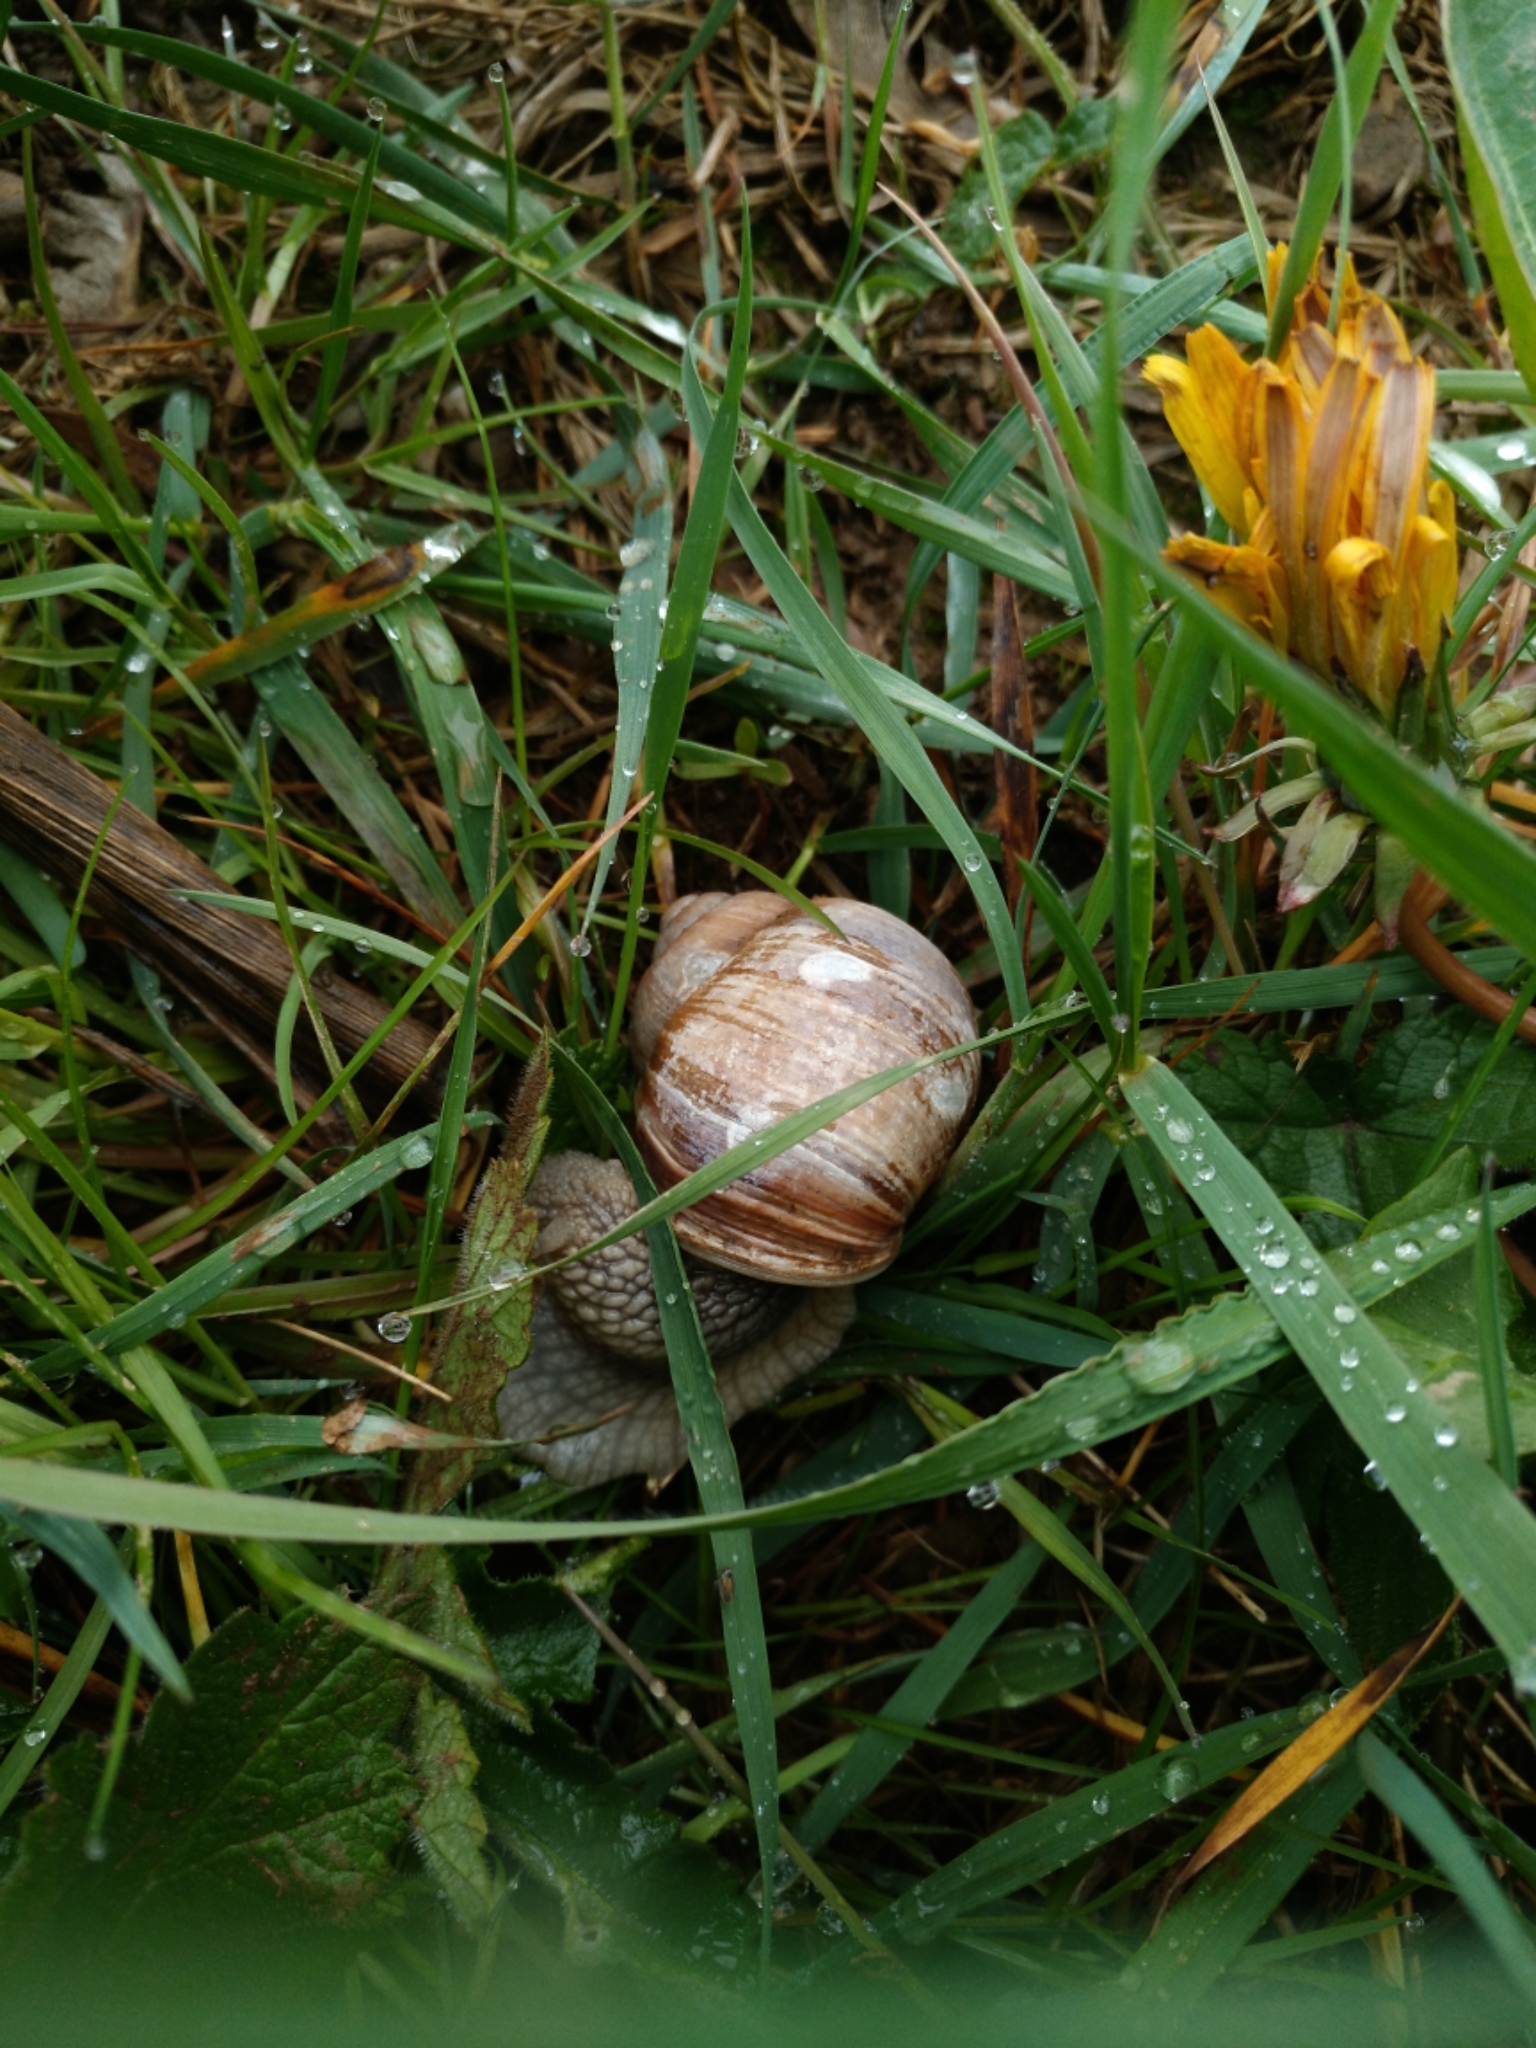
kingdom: Animalia
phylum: Mollusca
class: Gastropoda
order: Stylommatophora
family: Helicidae
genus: Helix
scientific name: Helix pomatia
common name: Roman snail
